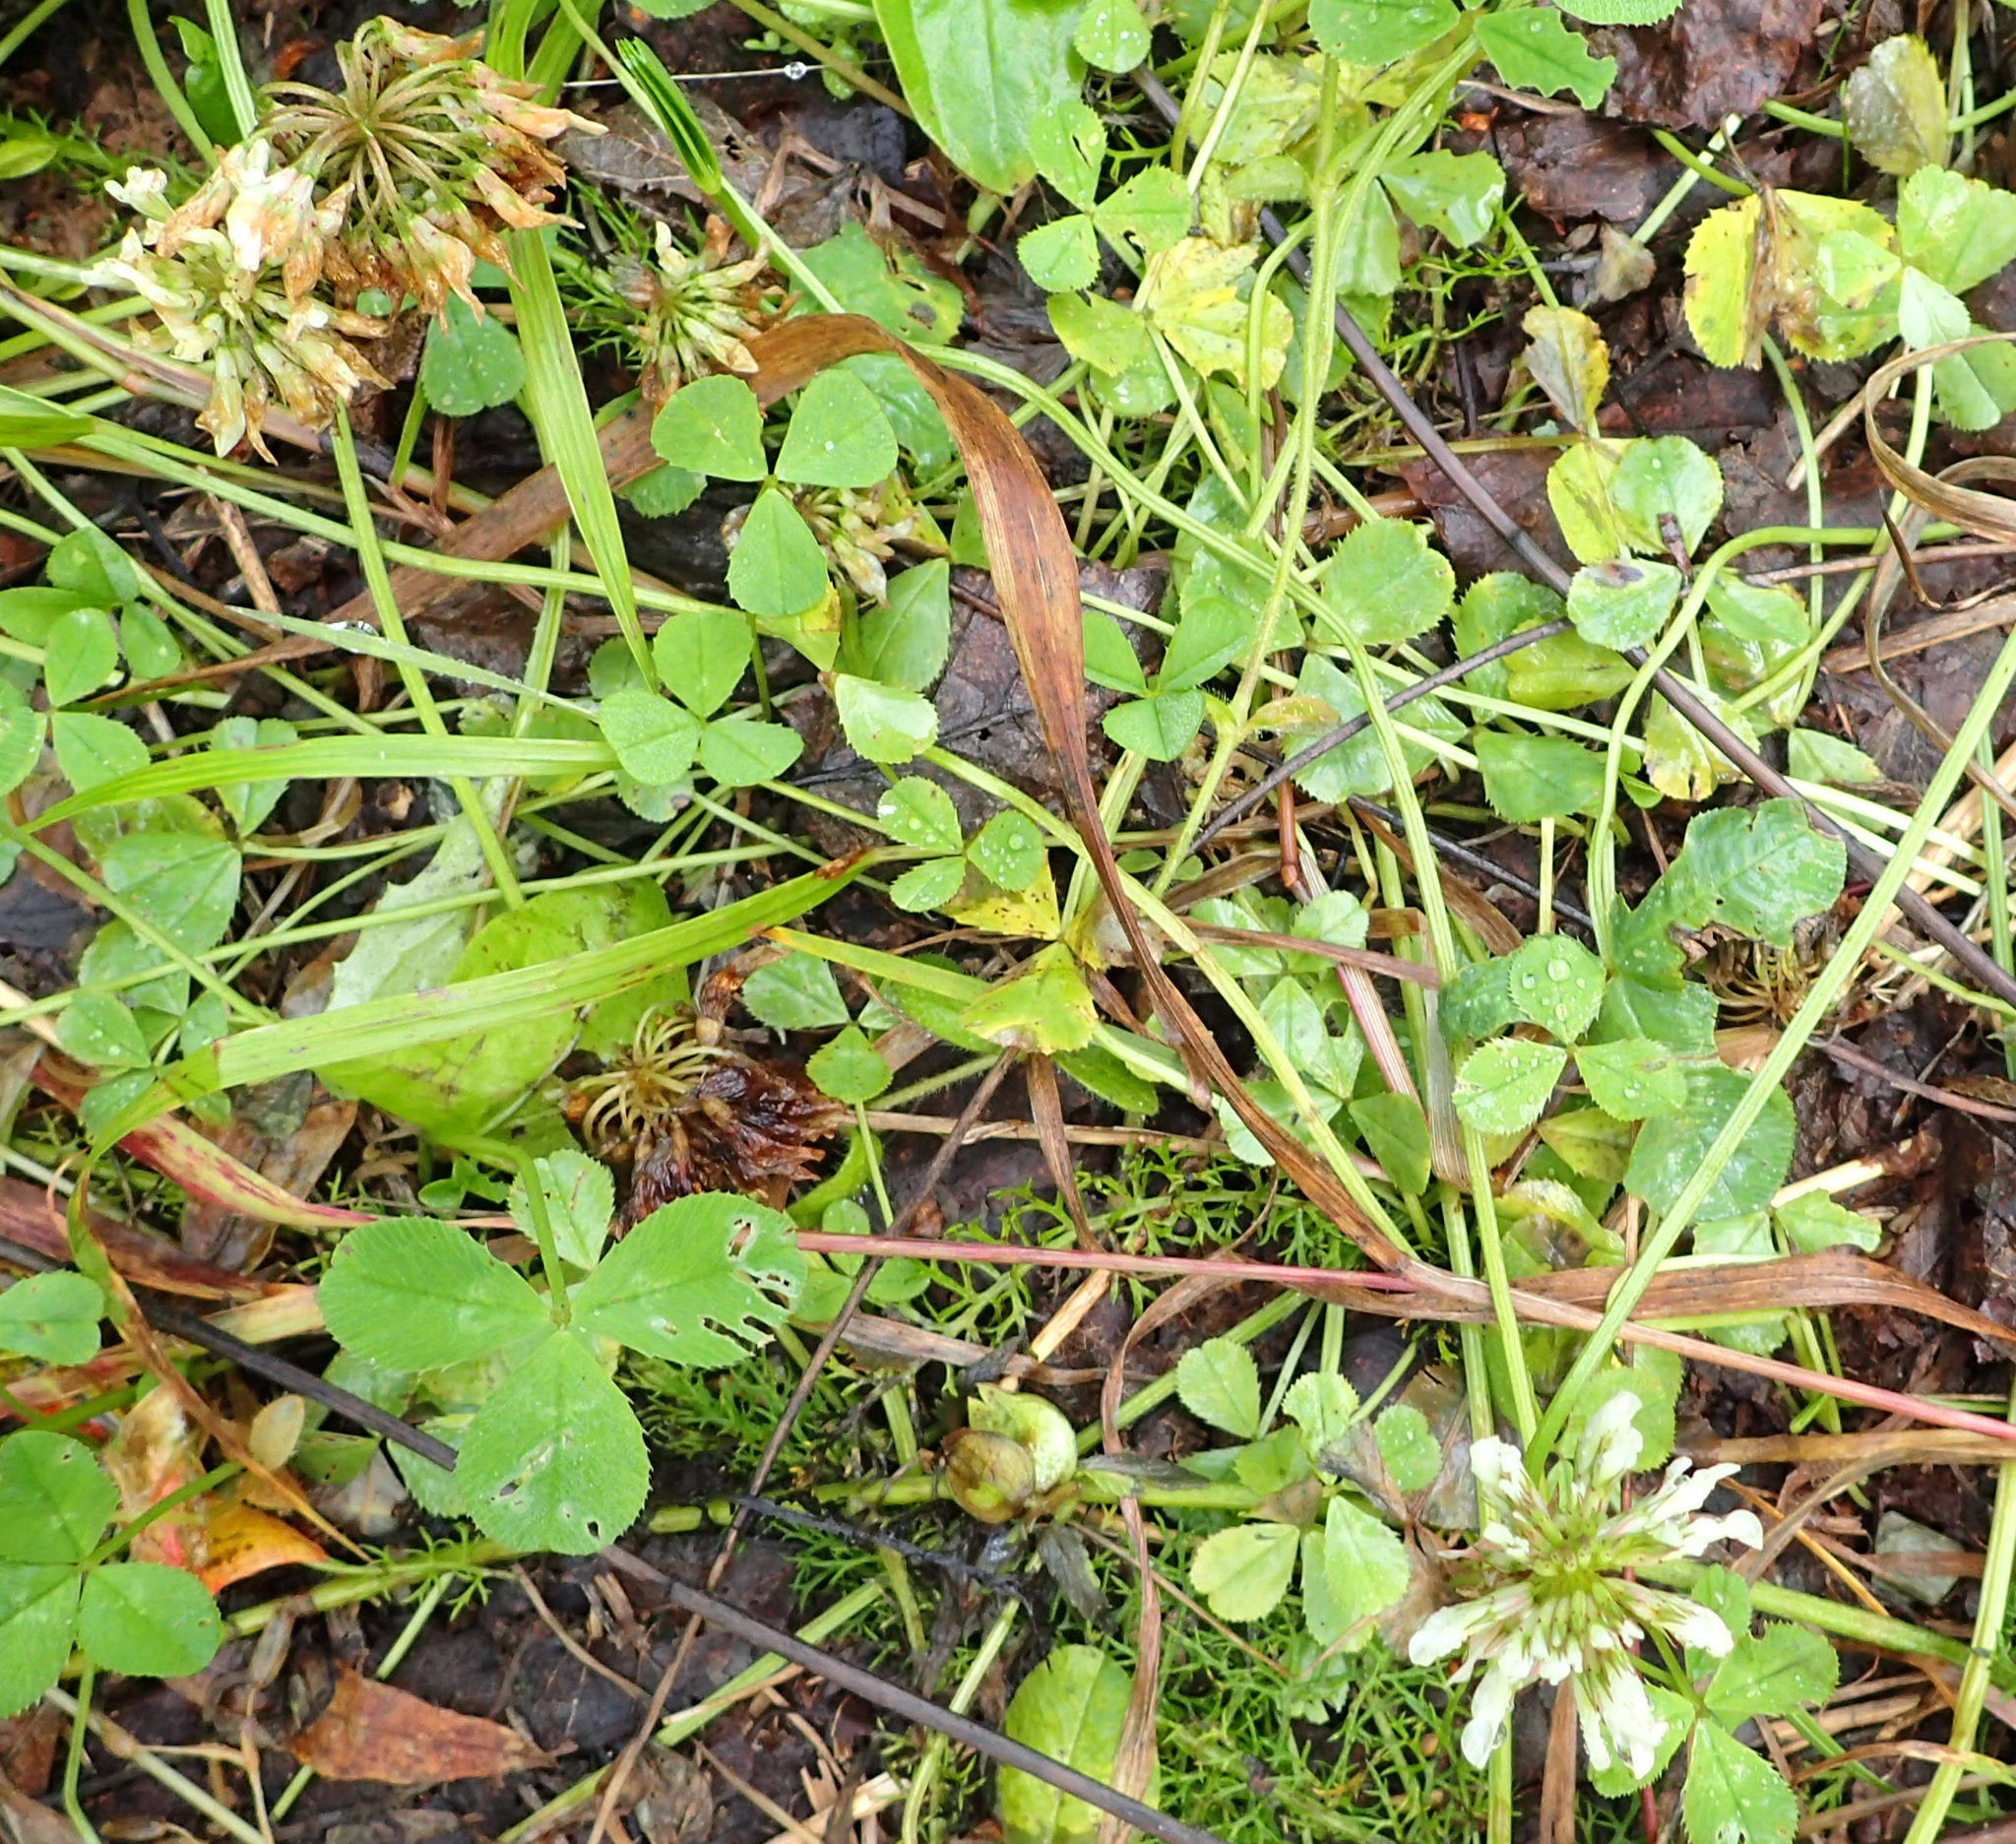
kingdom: Plantae
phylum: Tracheophyta
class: Magnoliopsida
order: Fabales
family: Fabaceae
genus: Trifolium
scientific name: Trifolium repens
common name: White clover
